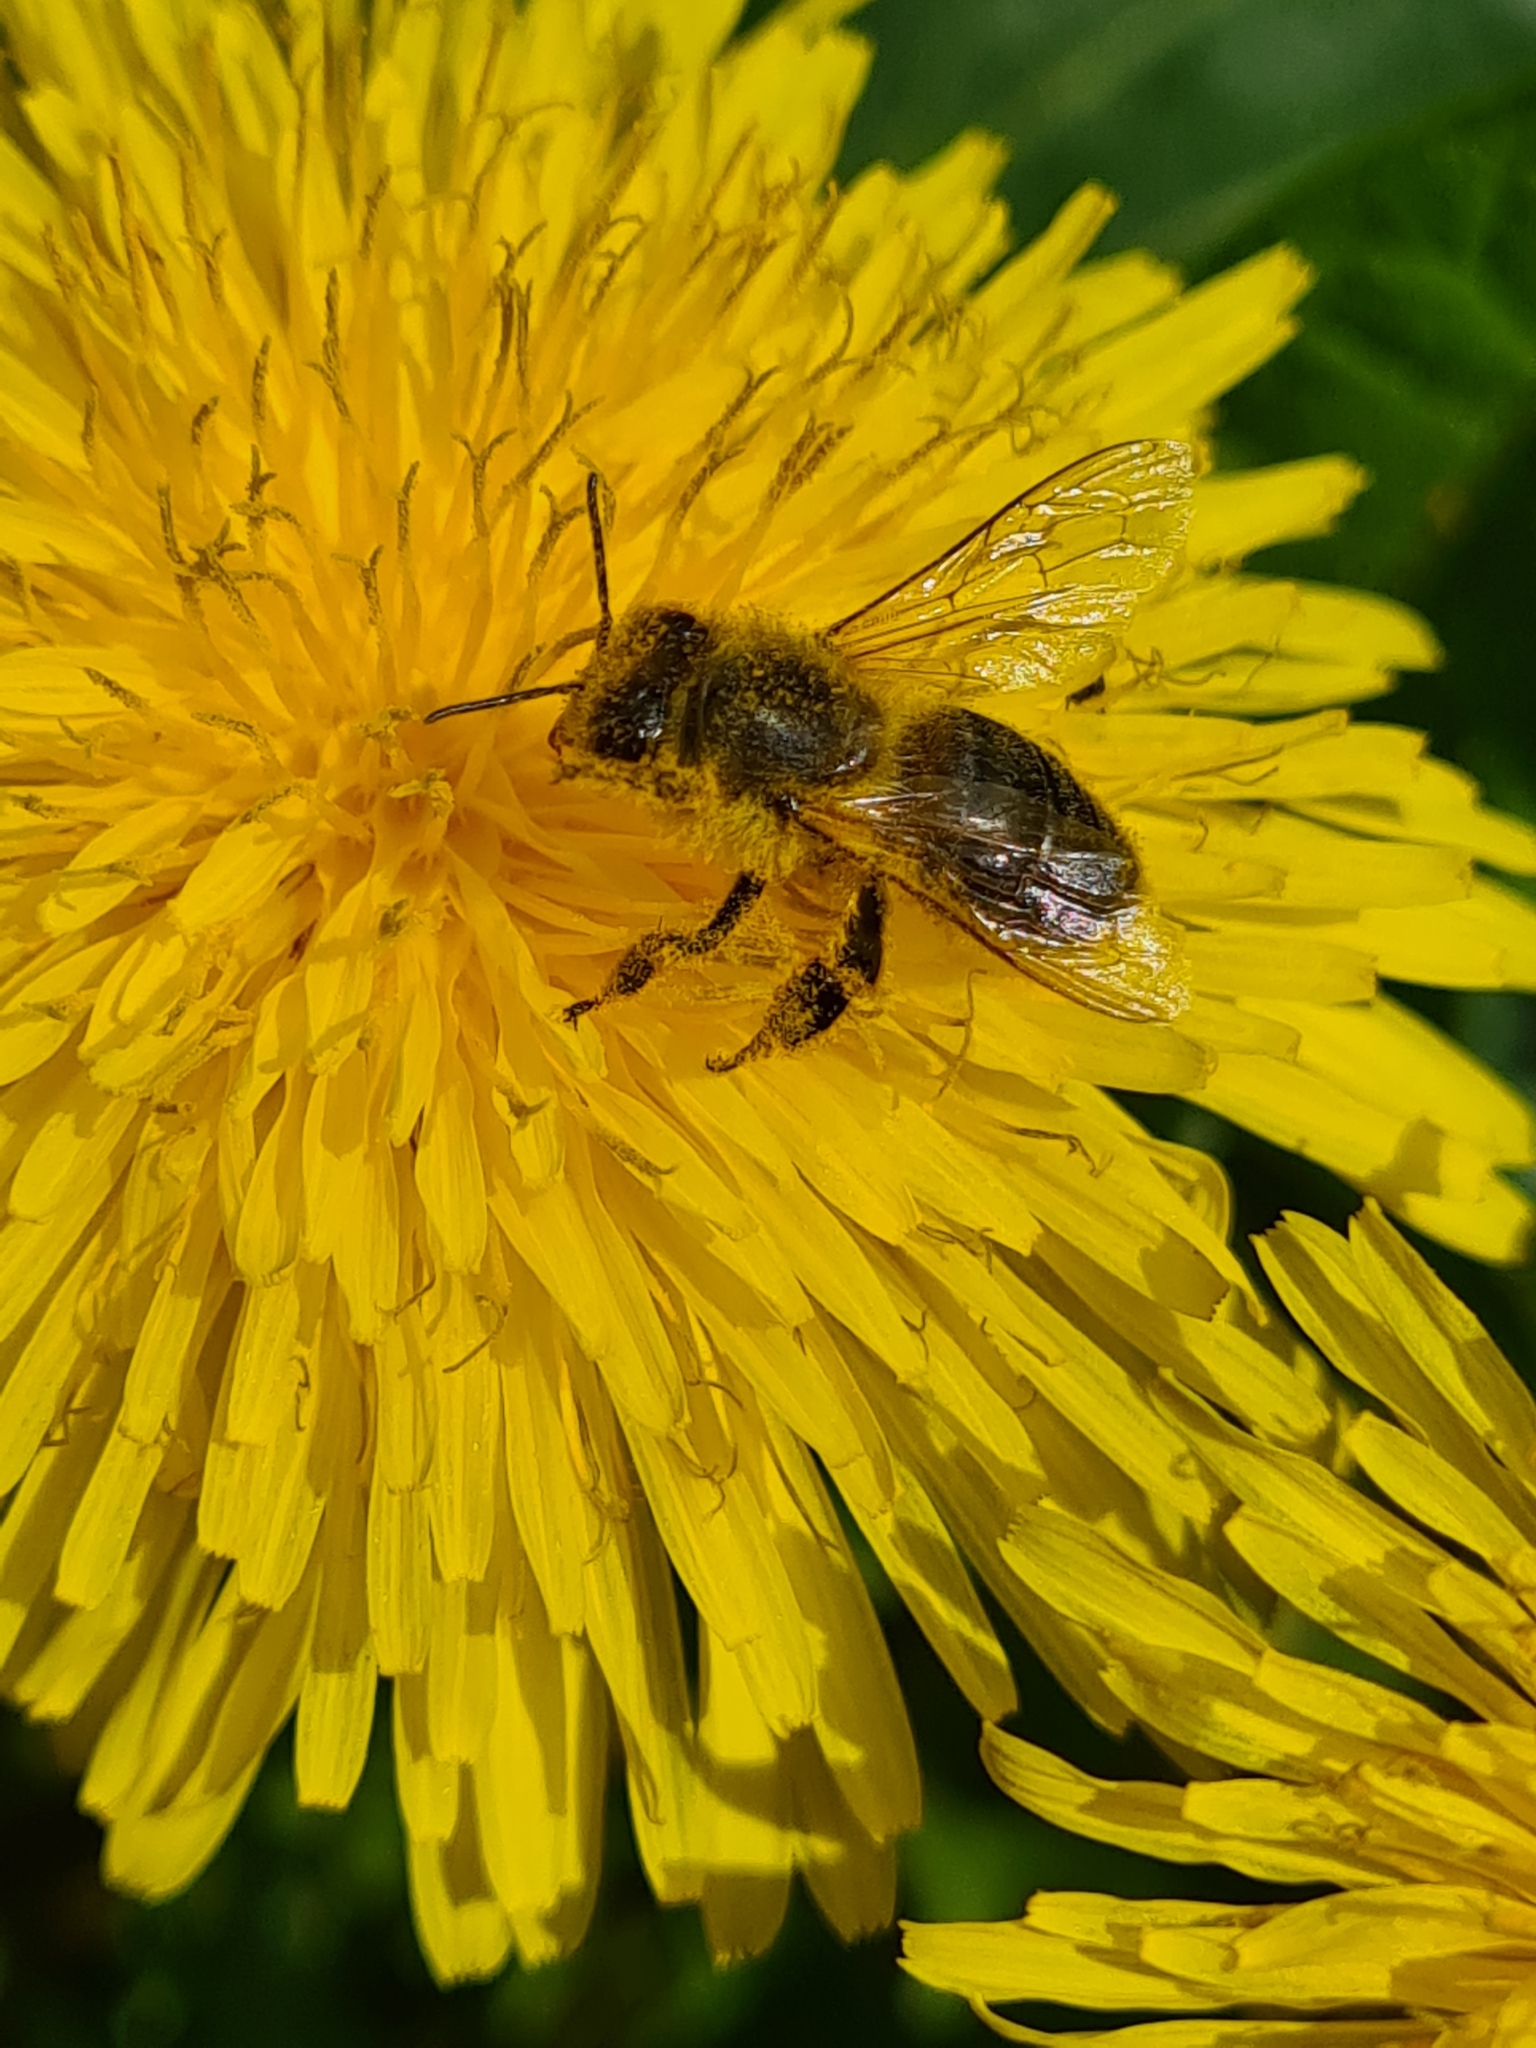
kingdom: Animalia
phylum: Arthropoda
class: Insecta
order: Hymenoptera
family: Apidae
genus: Apis
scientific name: Apis mellifera
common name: Honey bee
